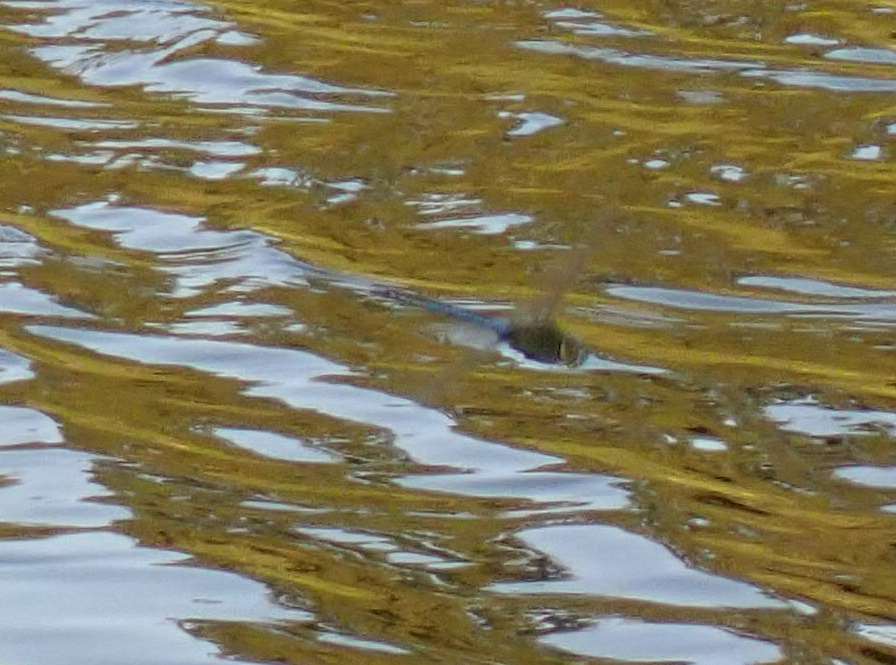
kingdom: Animalia
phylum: Arthropoda
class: Insecta
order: Odonata
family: Aeshnidae
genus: Anax
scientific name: Anax junius
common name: Common green darner
